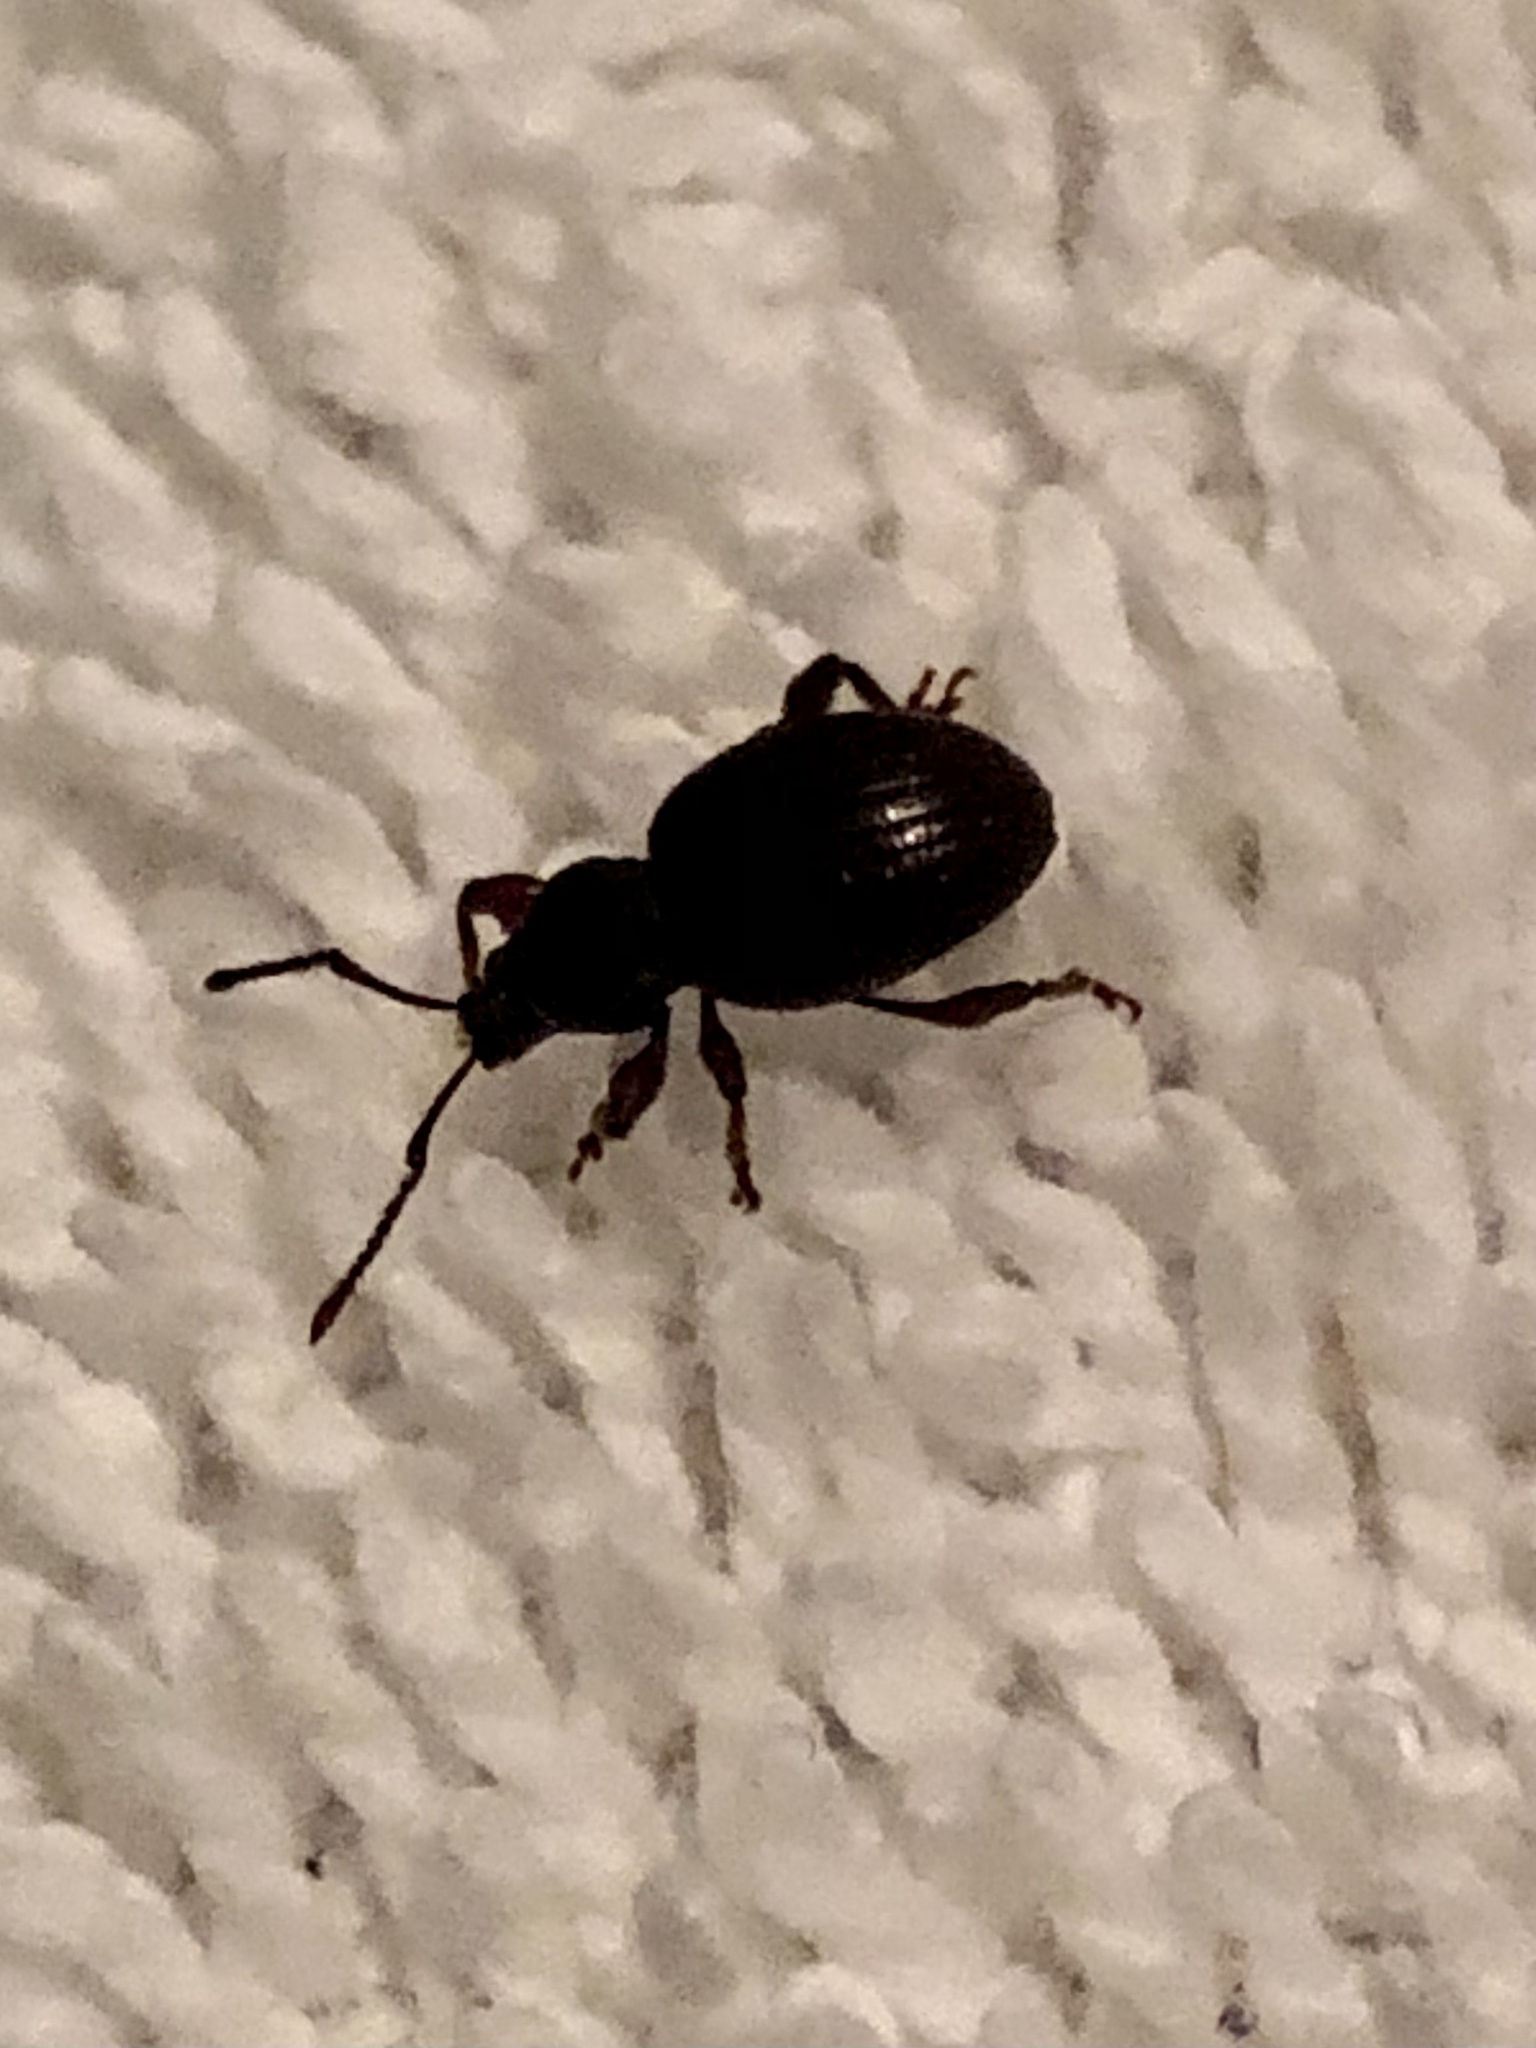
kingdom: Animalia
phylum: Arthropoda
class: Insecta
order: Coleoptera
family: Curculionidae
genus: Otiorhynchus
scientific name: Otiorhynchus ovatus
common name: Strawberry root weevil
